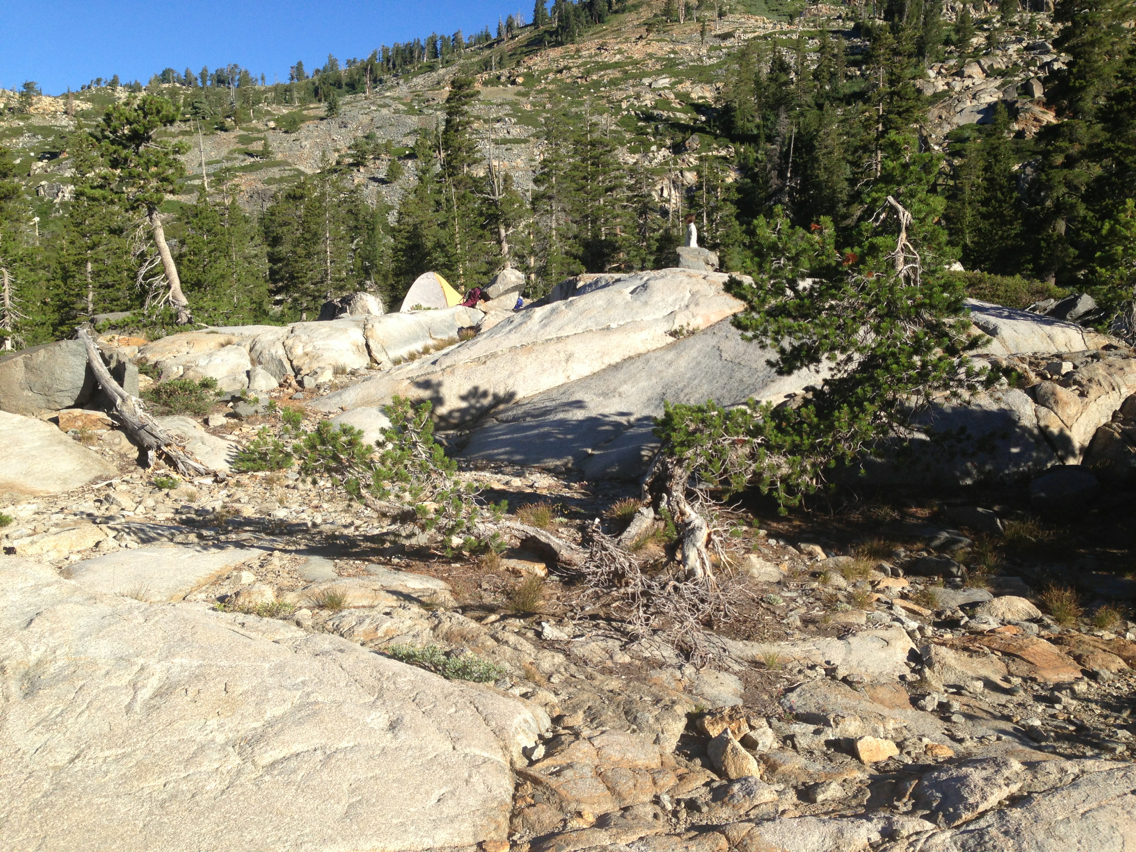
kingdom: Plantae
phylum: Tracheophyta
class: Pinopsida
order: Pinales
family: Pinaceae
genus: Pinus
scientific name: Pinus contorta
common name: Lodgepole pine
